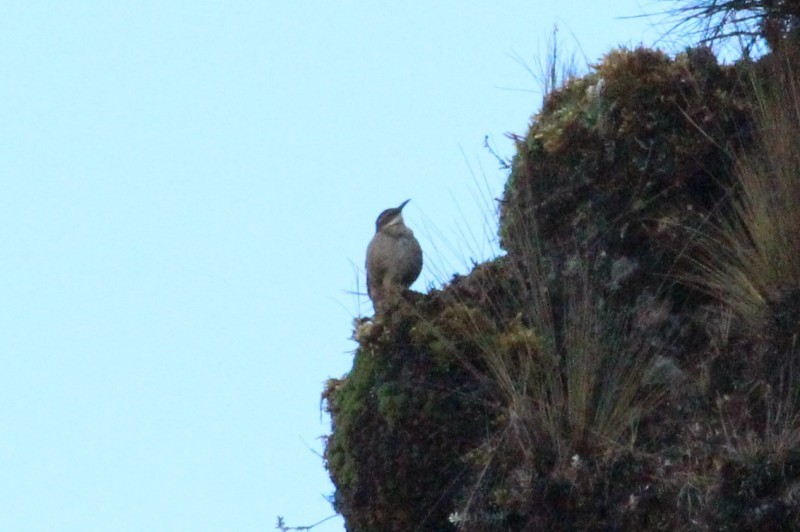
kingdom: Animalia
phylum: Chordata
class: Aves
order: Passeriformes
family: Furnariidae
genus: Cinclodes
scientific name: Cinclodes excelsior
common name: Stout-billed cinclodes
